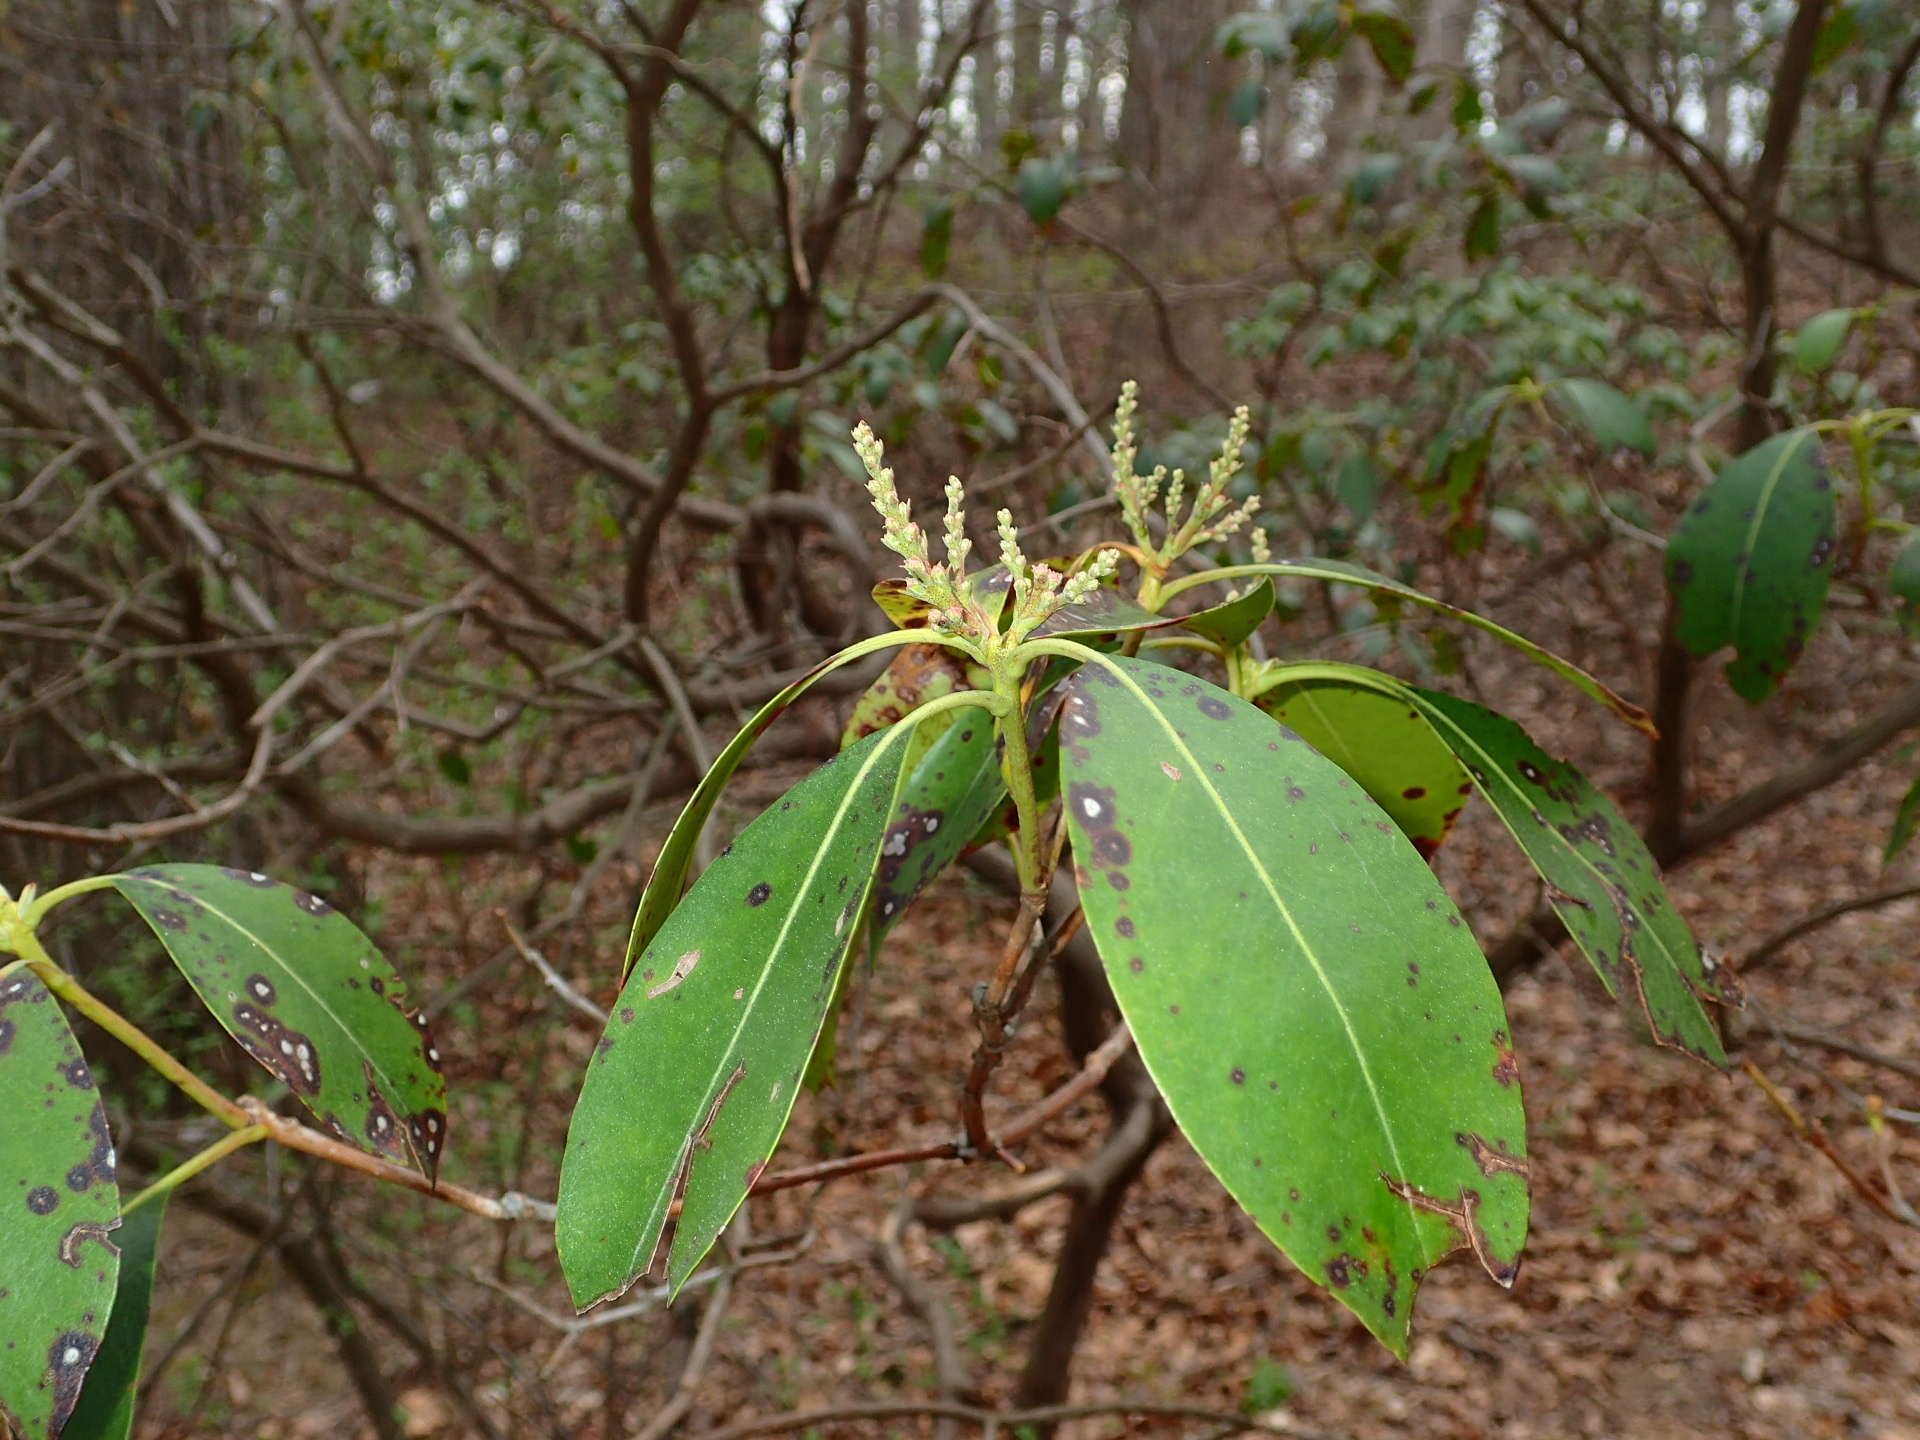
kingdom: Plantae
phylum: Tracheophyta
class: Magnoliopsida
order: Ericales
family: Ericaceae
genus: Kalmia
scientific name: Kalmia latifolia
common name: Mountain-laurel
